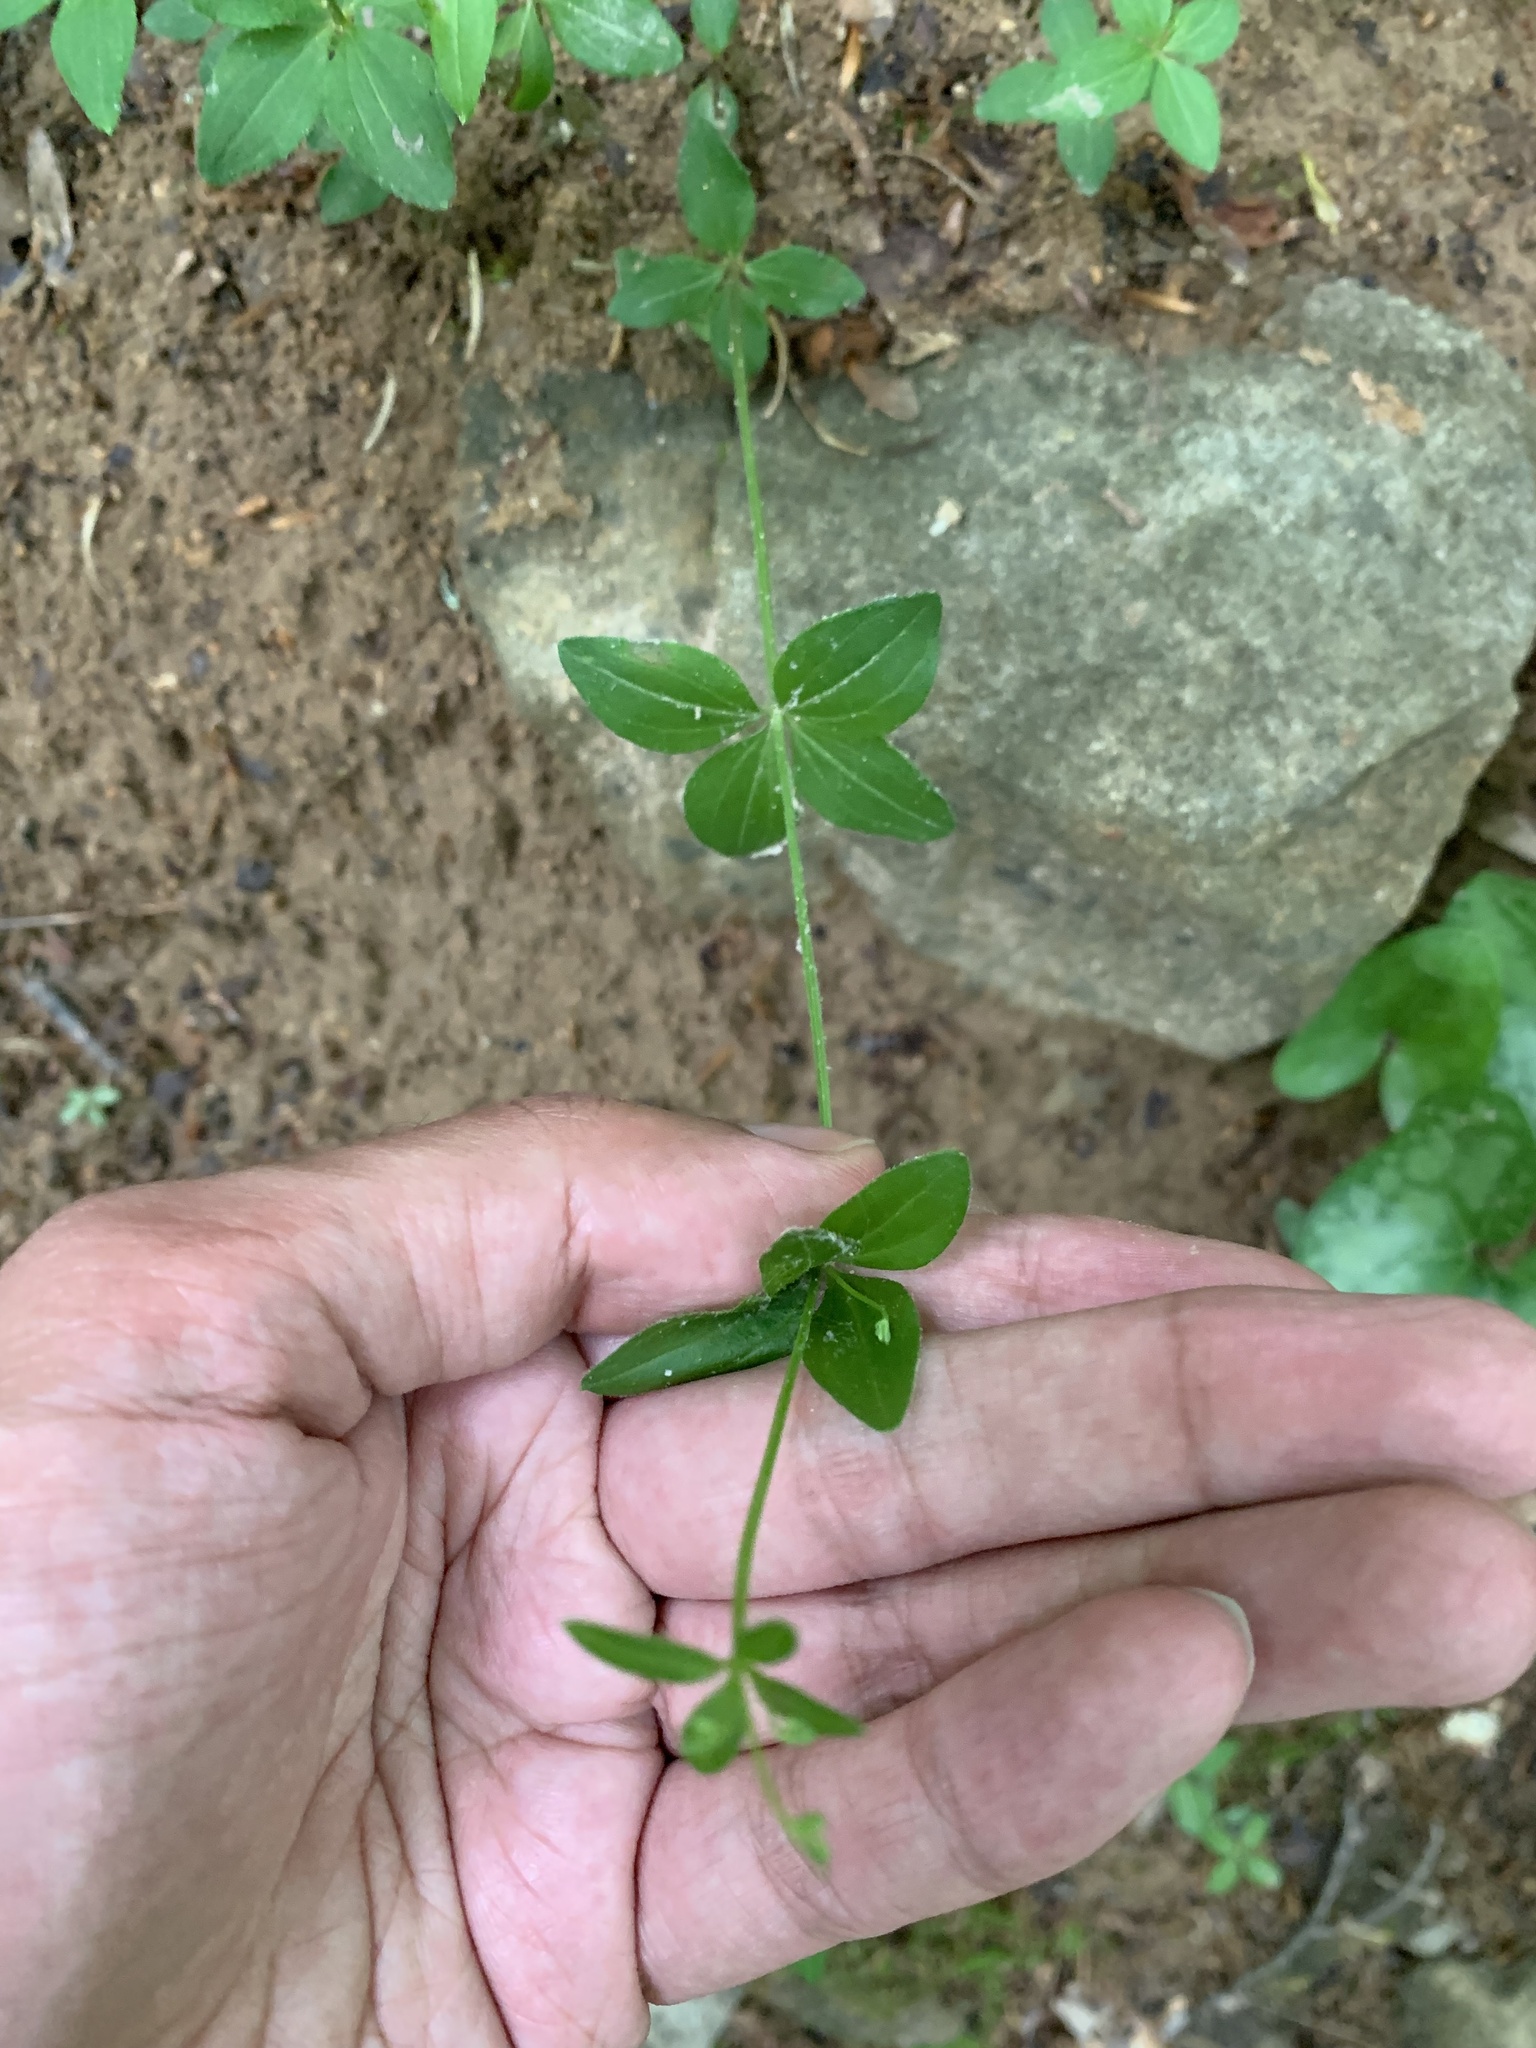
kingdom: Plantae
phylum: Tracheophyta
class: Magnoliopsida
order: Gentianales
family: Rubiaceae
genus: Galium
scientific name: Galium circaezans
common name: Forest bedstraw
